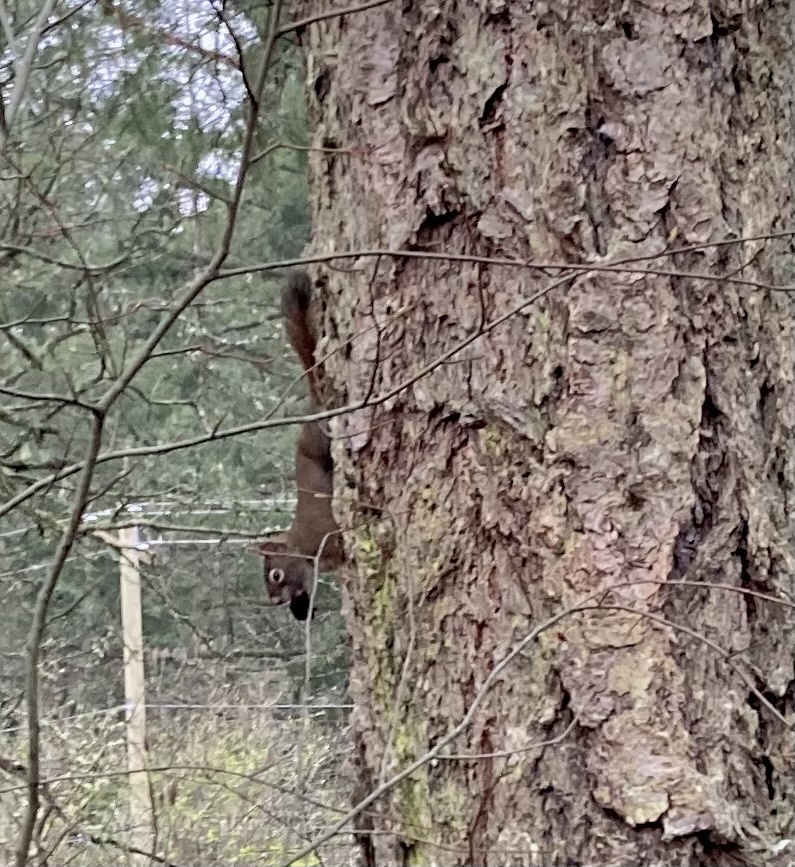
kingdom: Animalia
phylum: Chordata
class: Mammalia
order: Rodentia
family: Sciuridae
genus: Tamiasciurus
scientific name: Tamiasciurus hudsonicus
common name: Red squirrel
